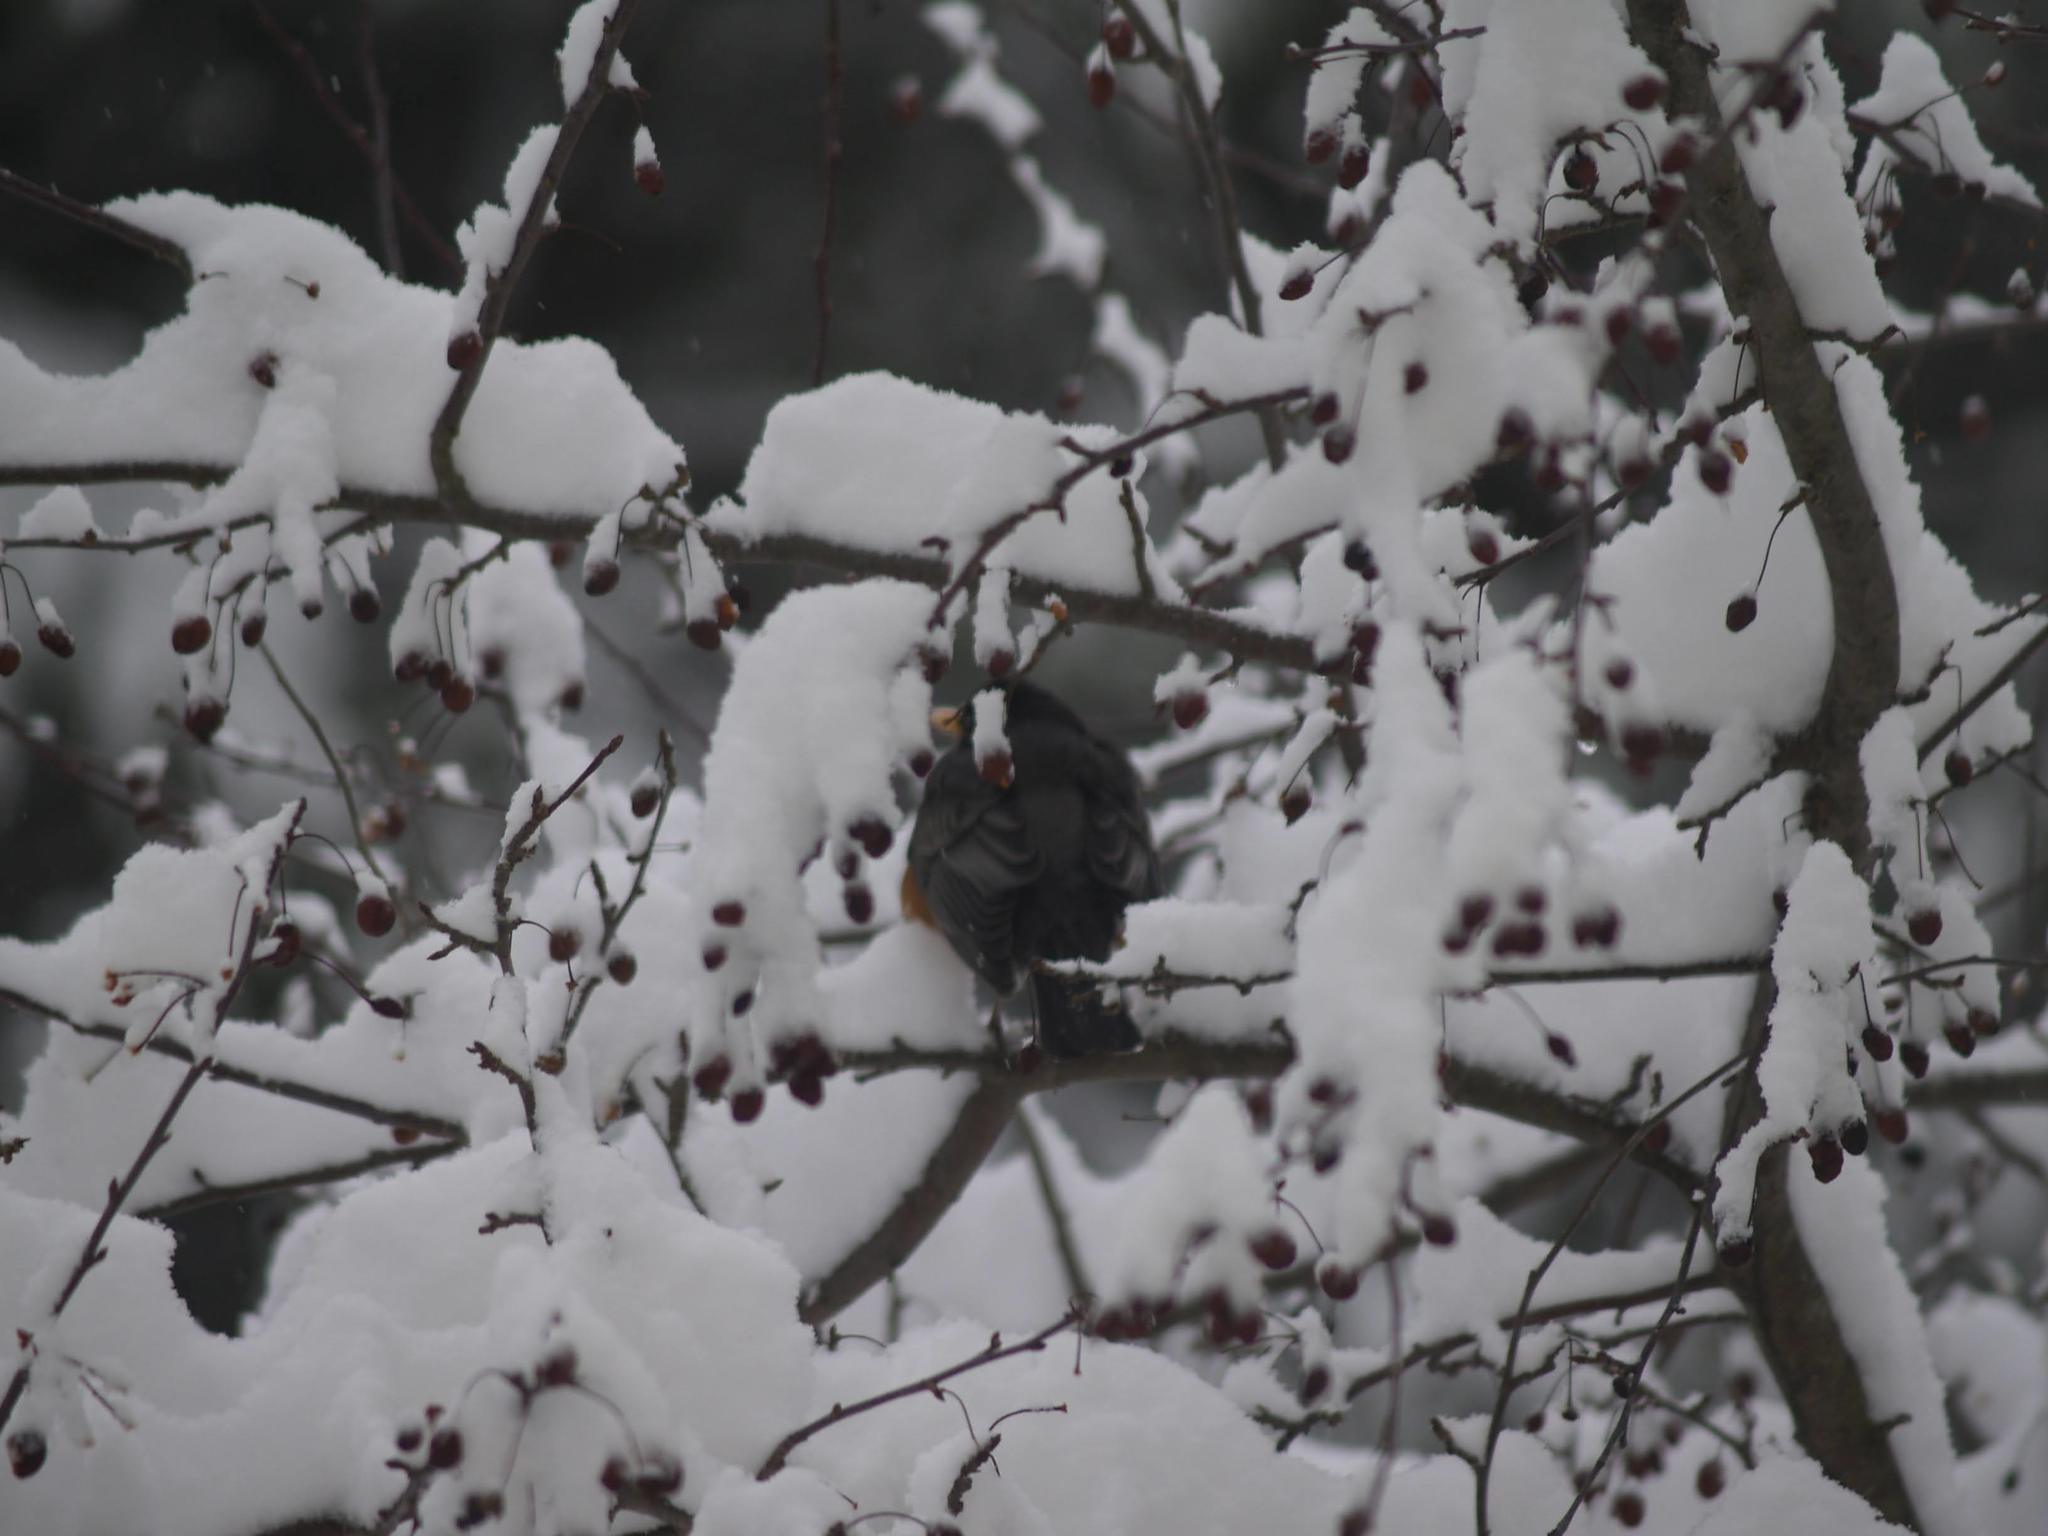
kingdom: Animalia
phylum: Chordata
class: Aves
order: Passeriformes
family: Turdidae
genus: Turdus
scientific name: Turdus migratorius
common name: American robin
